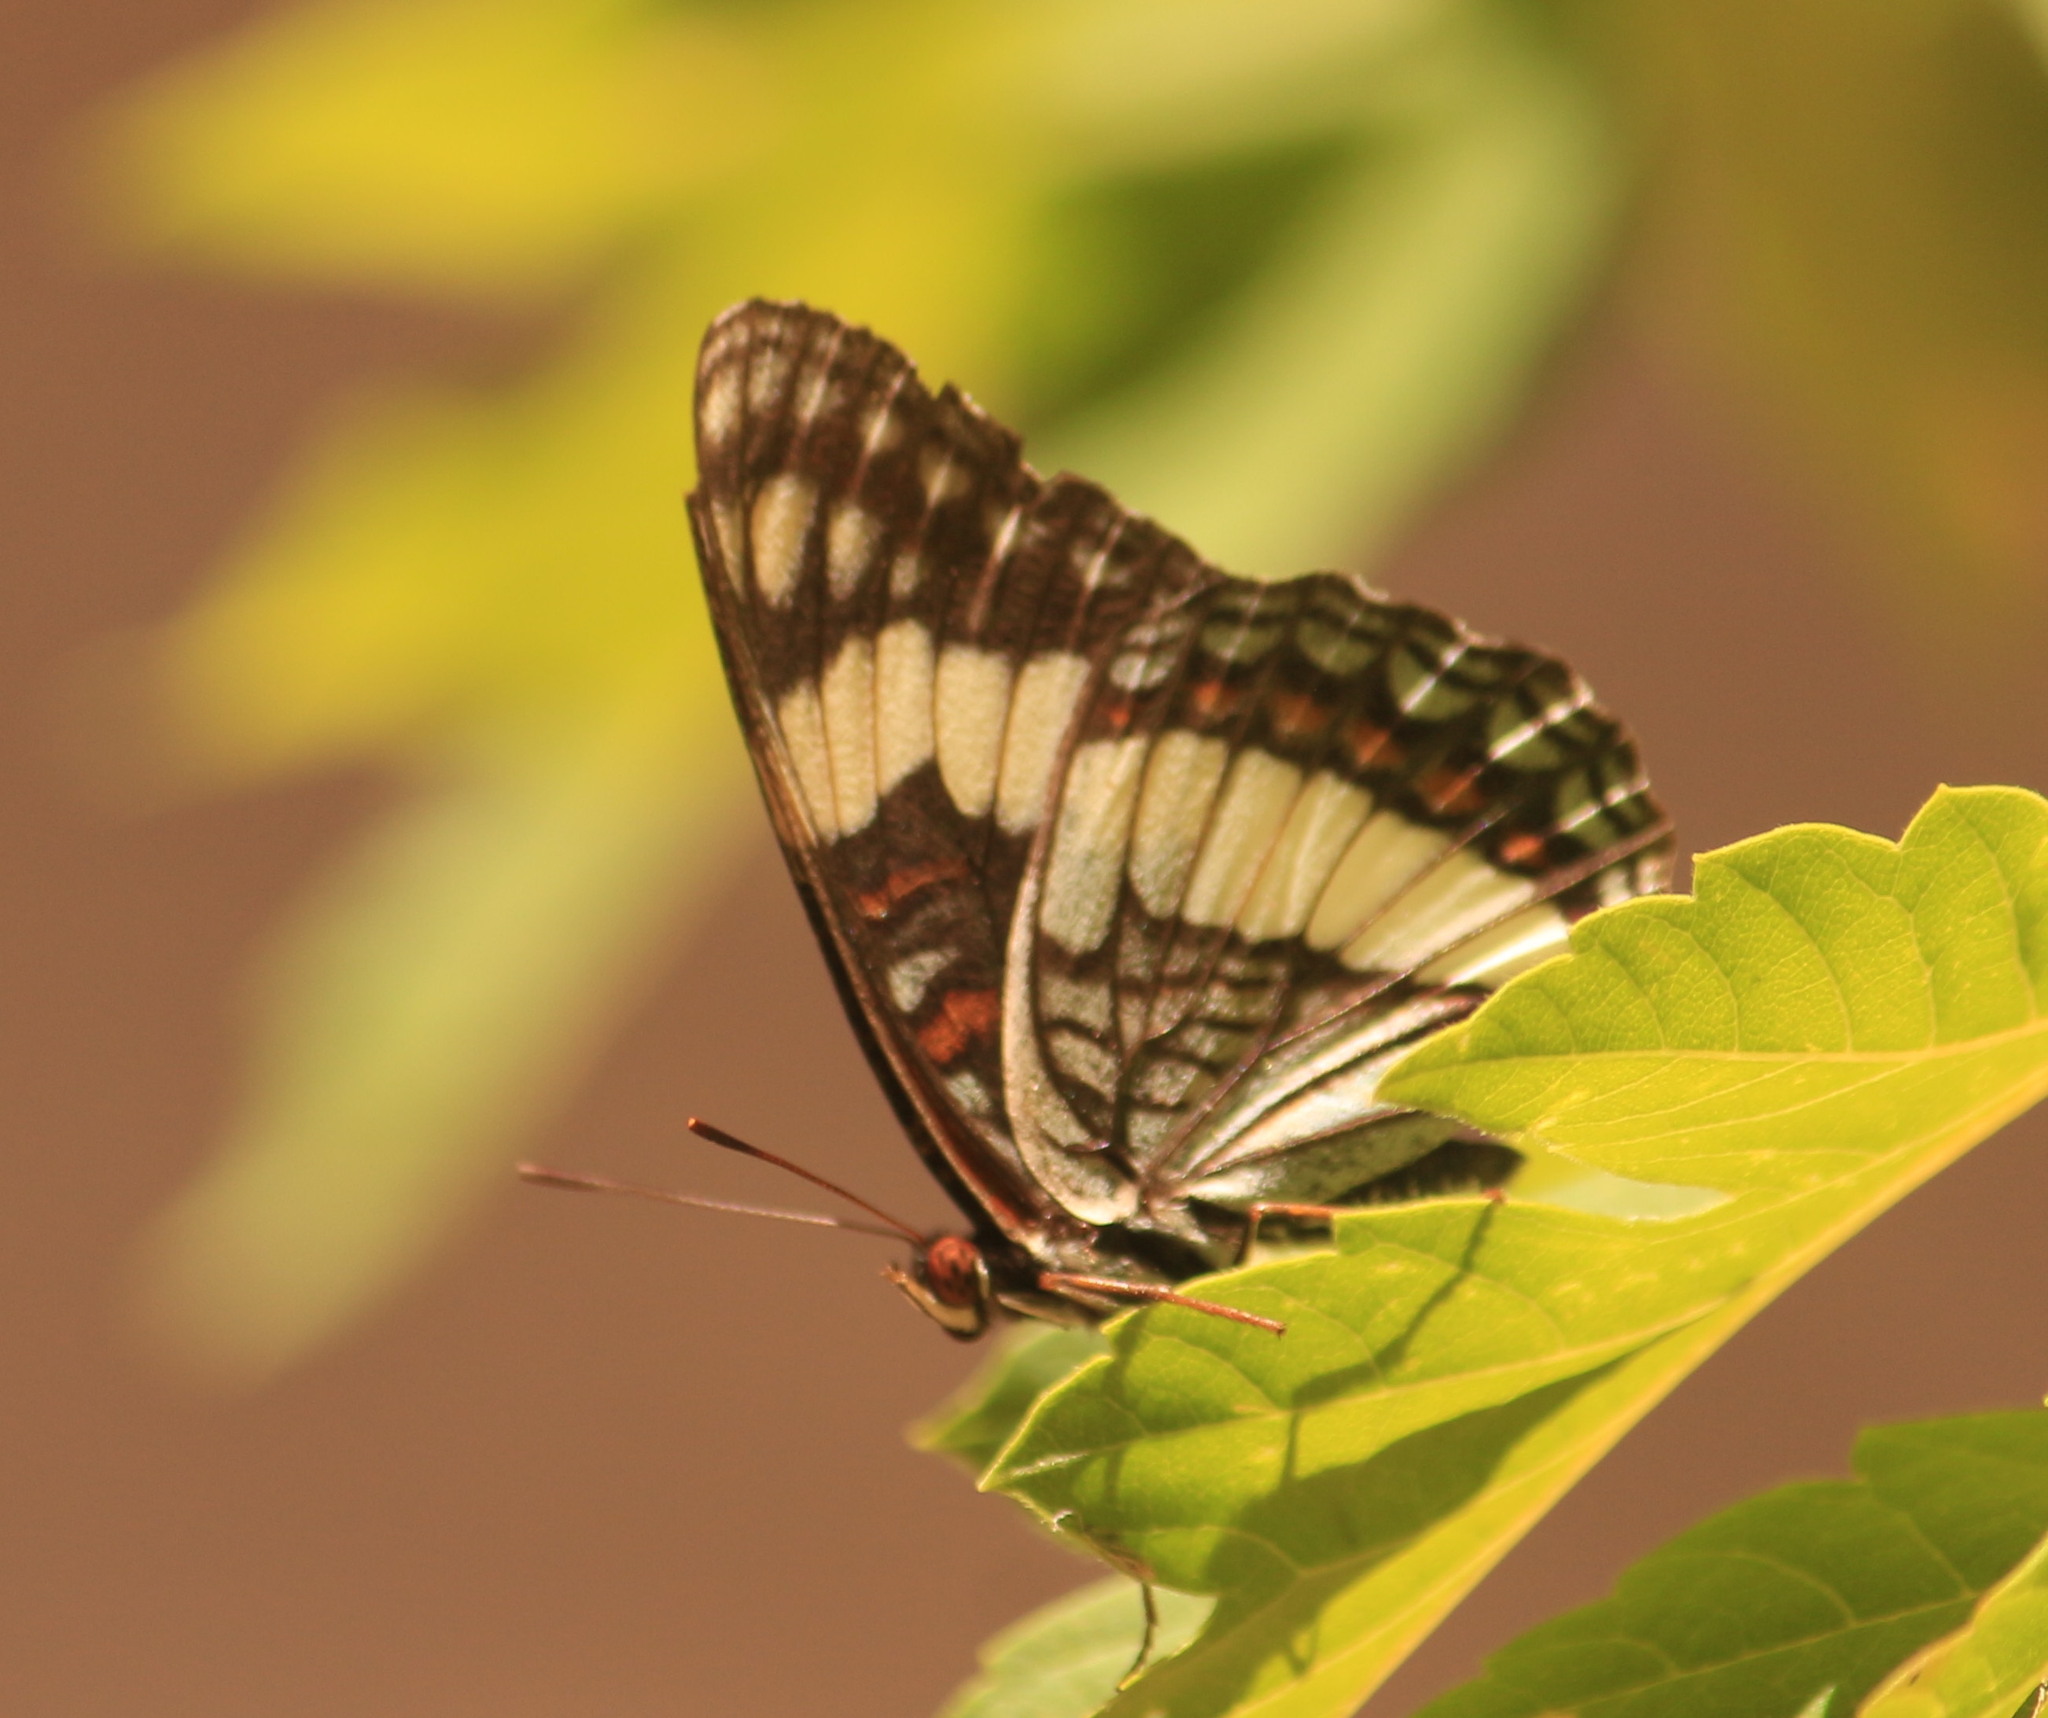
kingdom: Animalia
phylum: Arthropoda
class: Insecta
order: Lepidoptera
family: Nymphalidae
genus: Limenitis
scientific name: Limenitis weidemeyerii
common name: Weidemeyer's admiral
